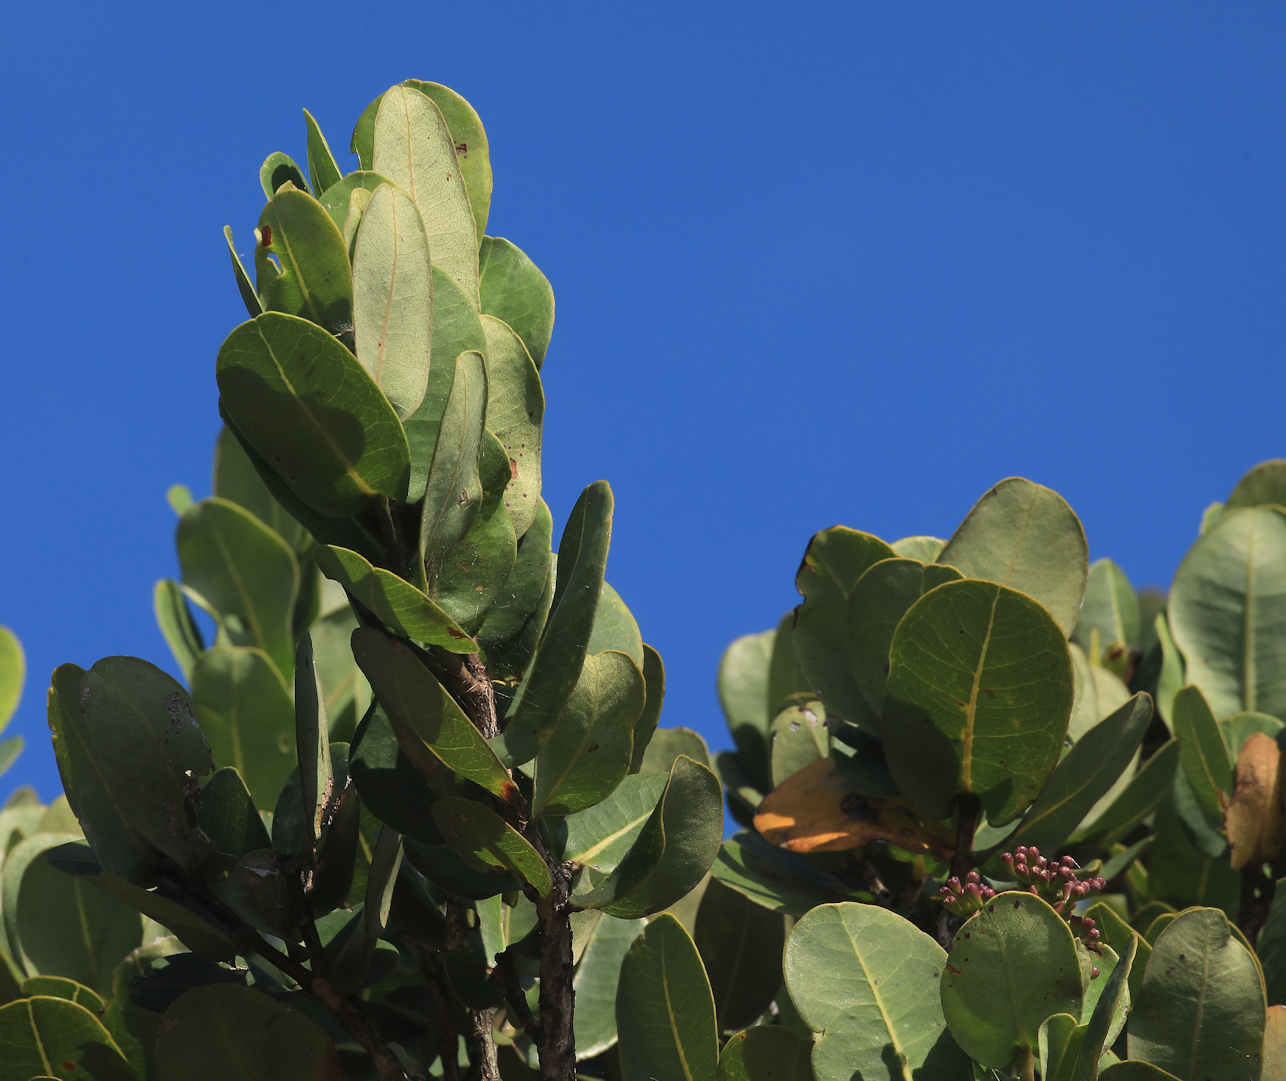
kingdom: Plantae
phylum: Tracheophyta
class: Magnoliopsida
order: Myrtales
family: Myrtaceae
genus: Syzygium
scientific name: Syzygium cordatum
